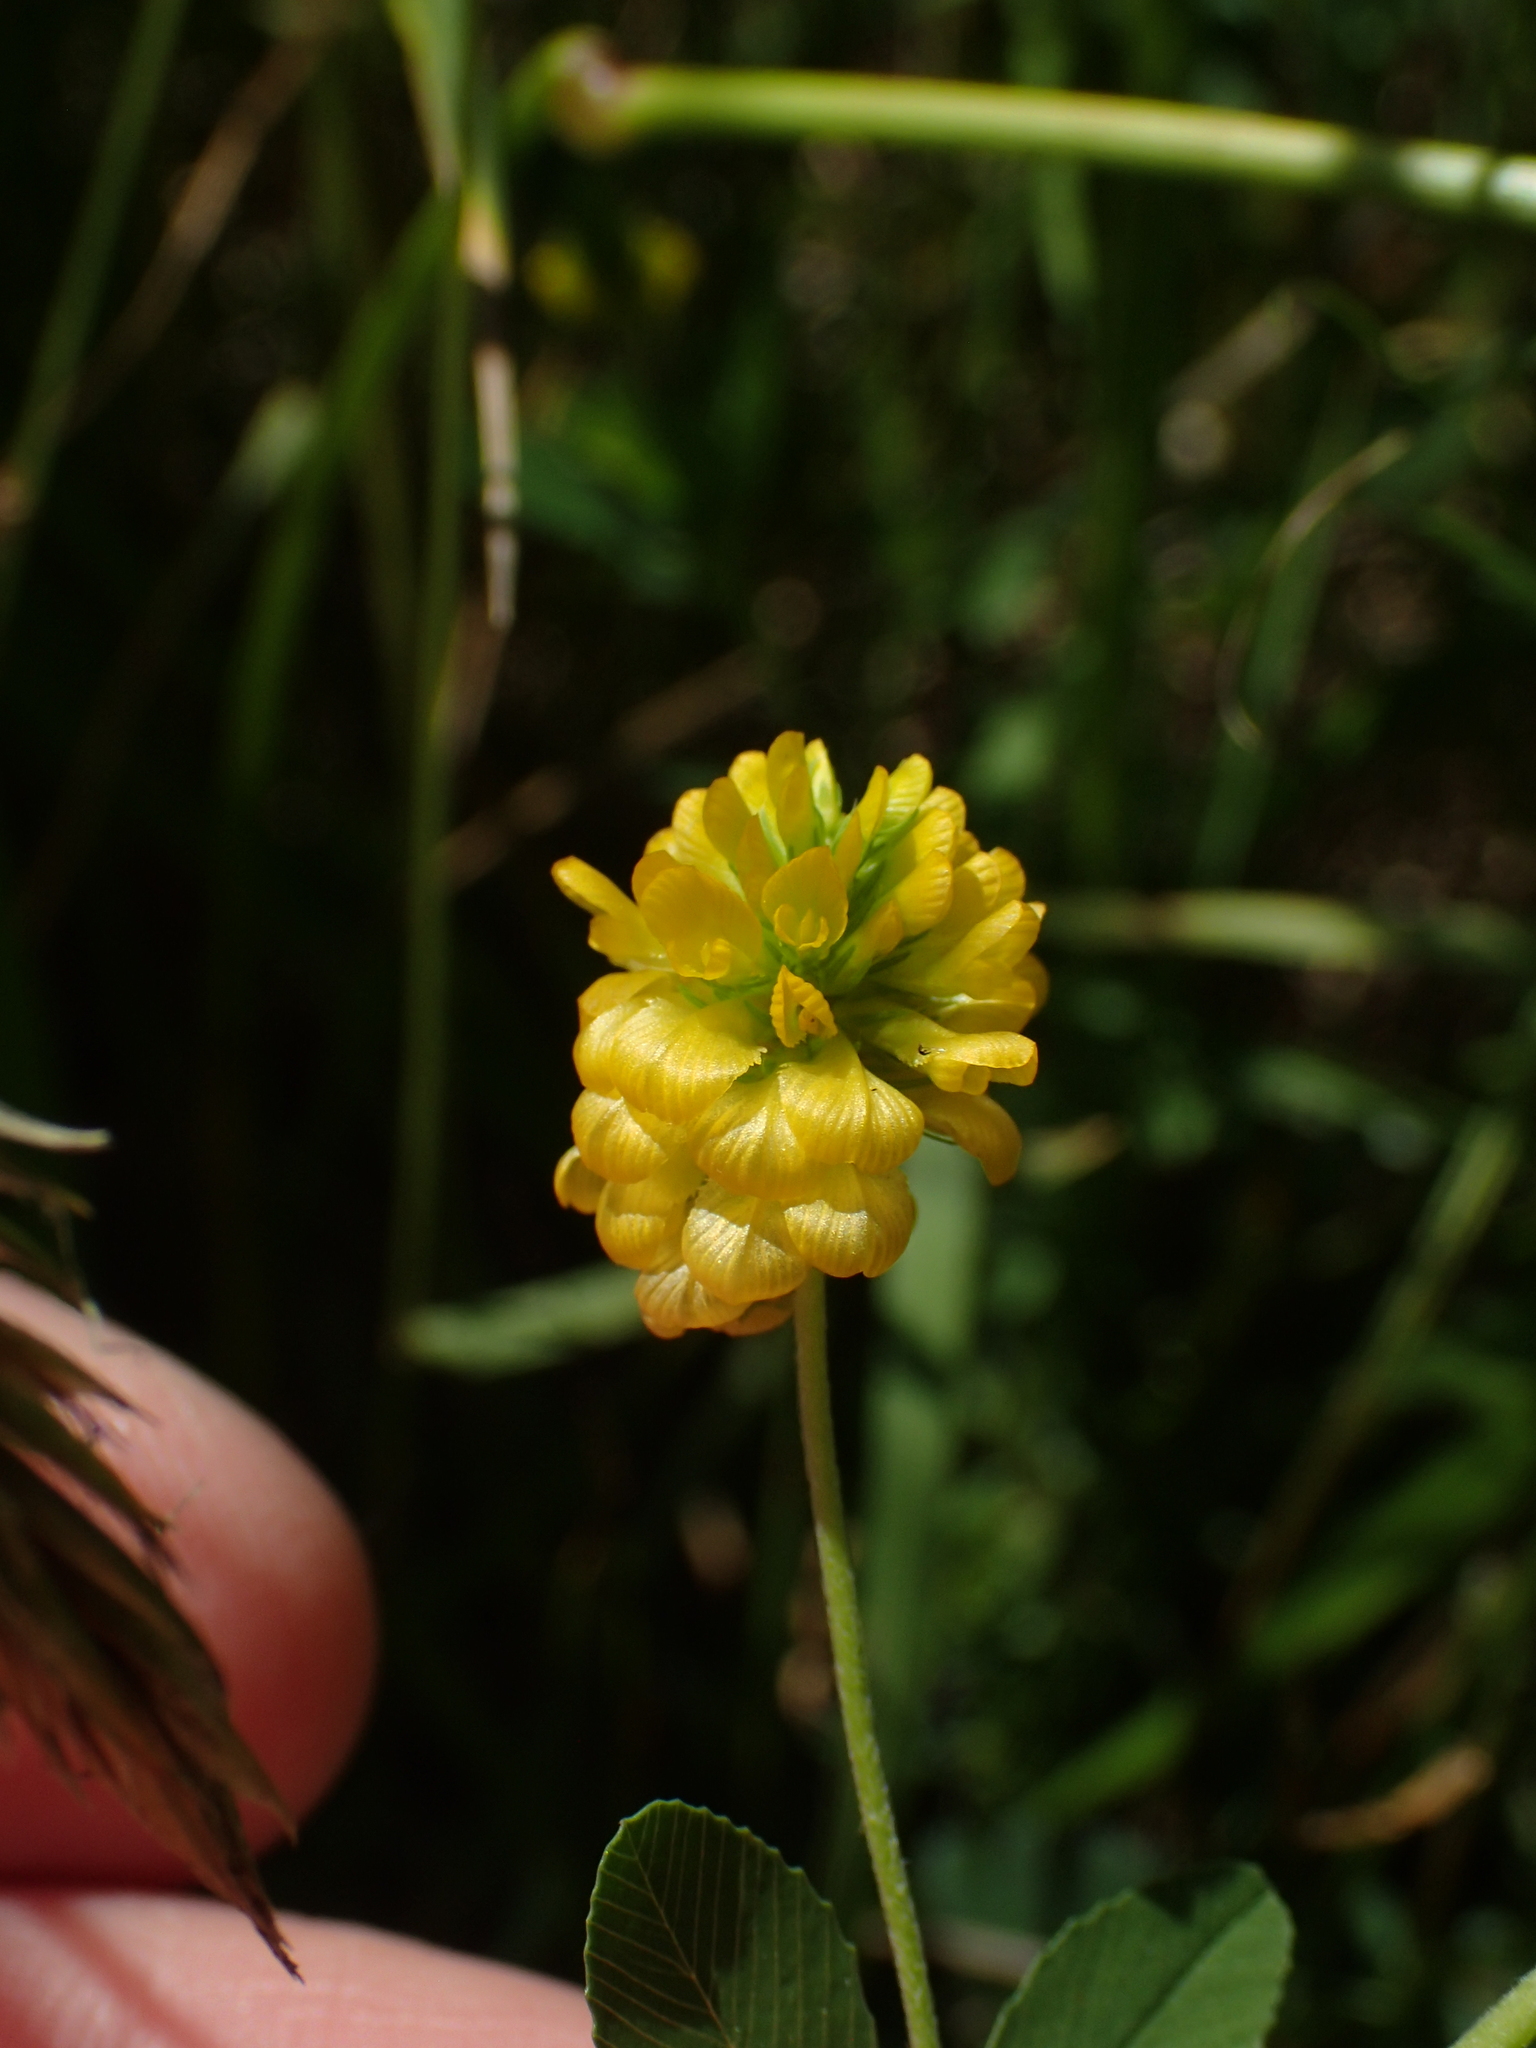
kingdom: Plantae
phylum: Tracheophyta
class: Magnoliopsida
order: Fabales
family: Fabaceae
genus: Trifolium
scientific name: Trifolium aureum
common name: Golden clover
